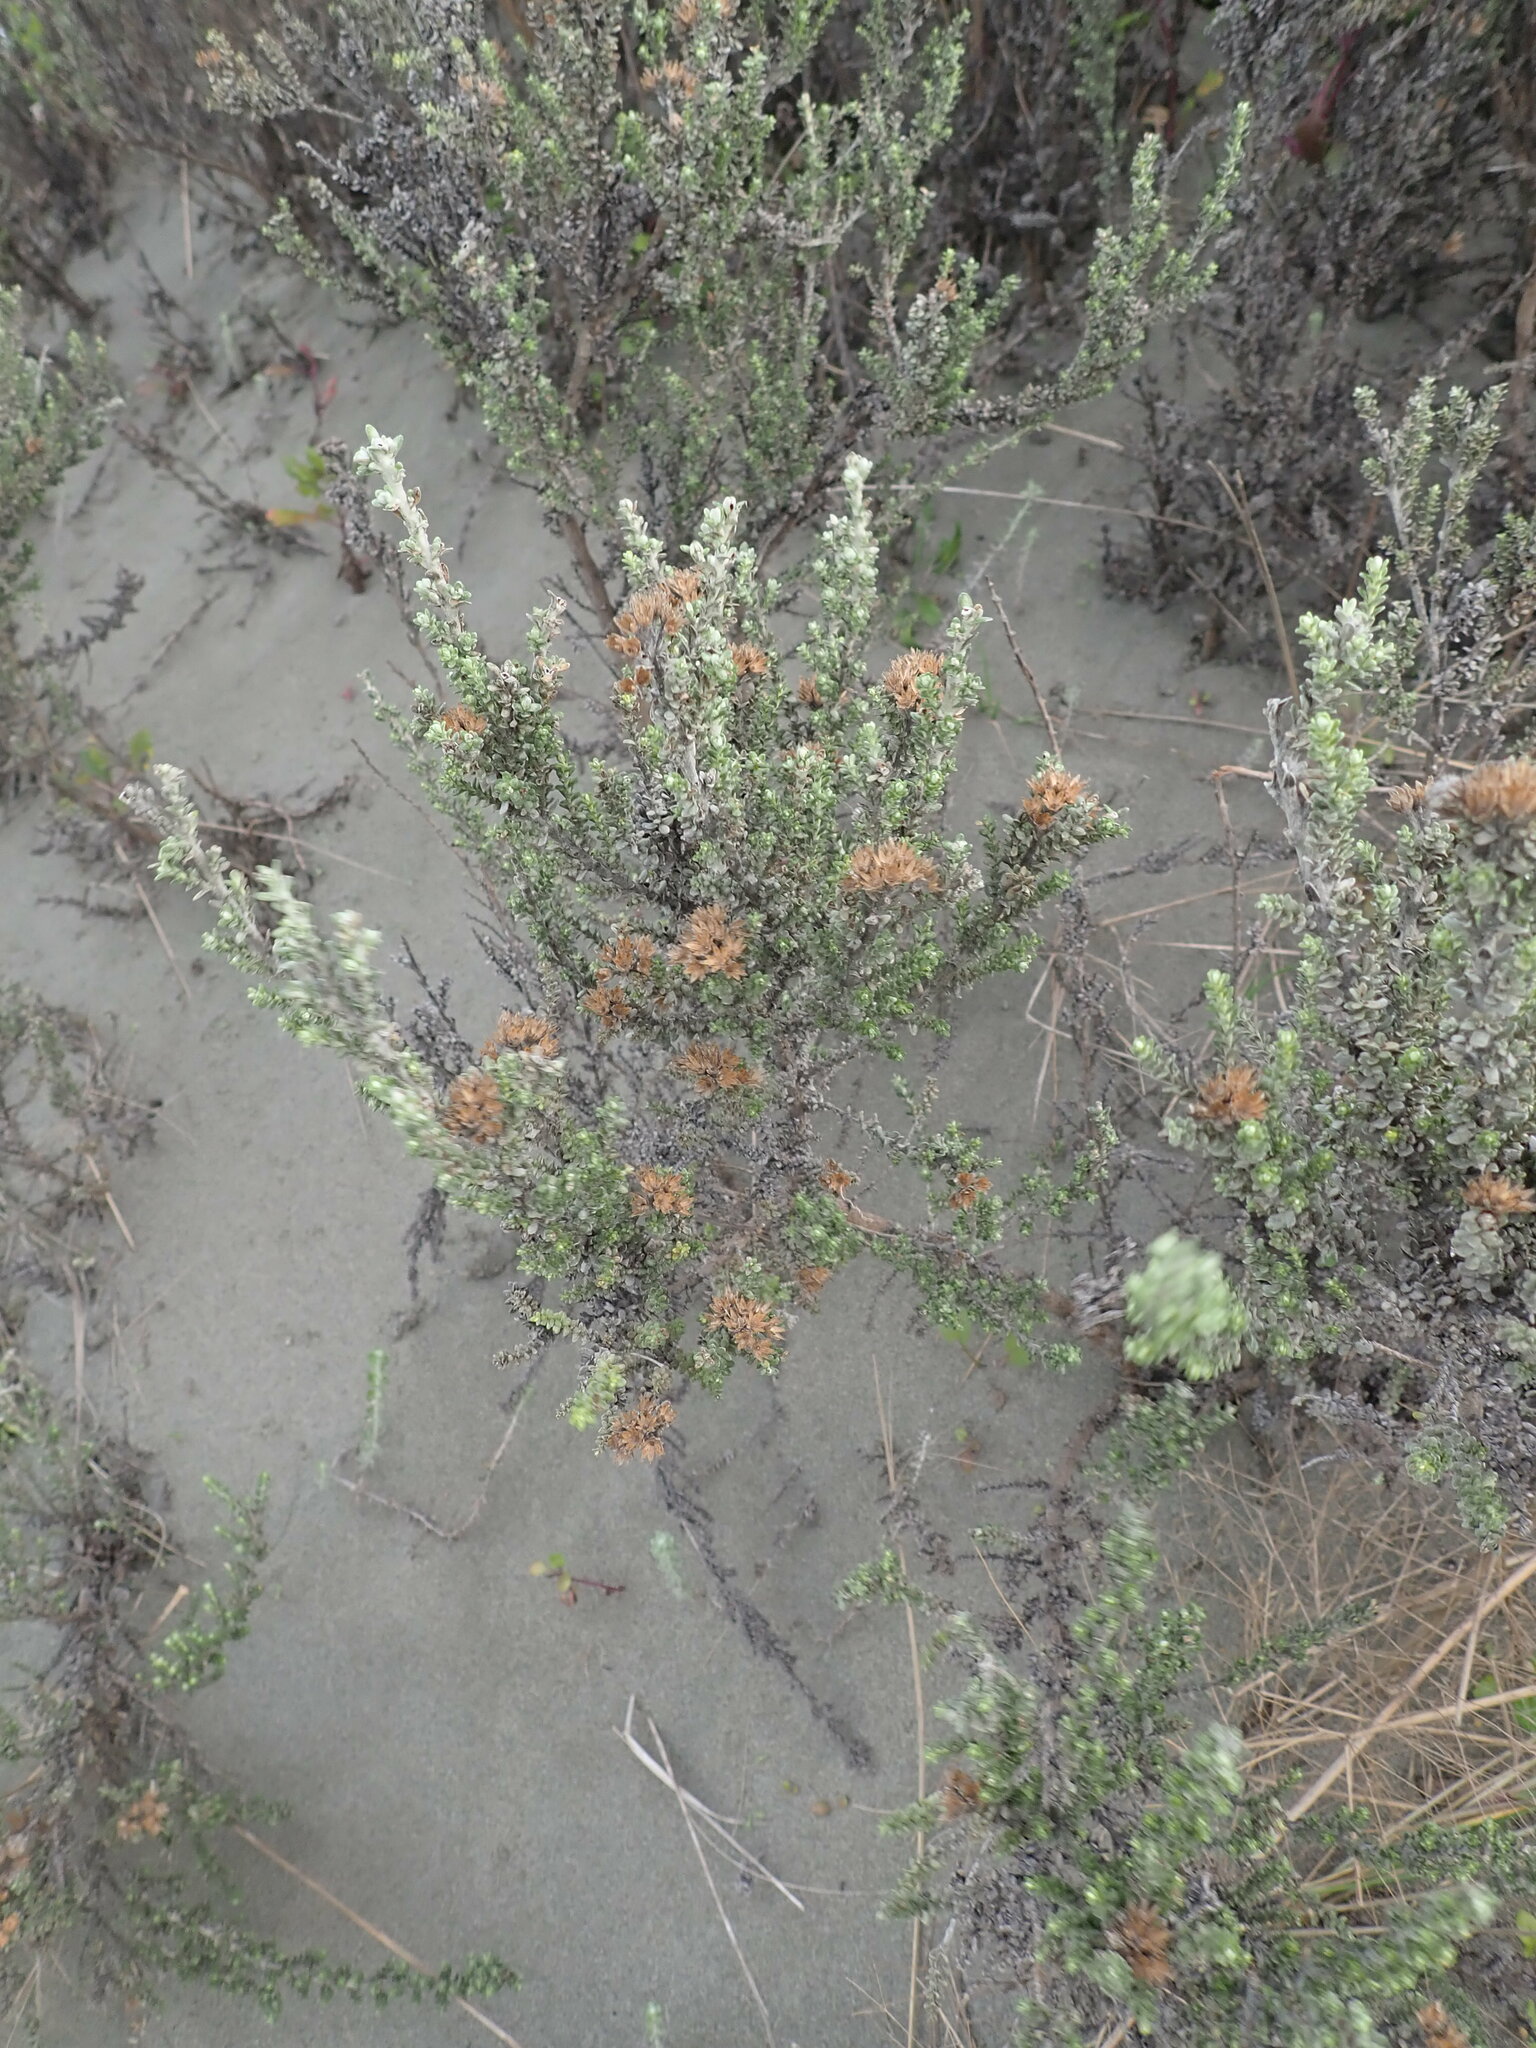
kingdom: Plantae
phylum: Tracheophyta
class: Magnoliopsida
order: Asterales
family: Asteraceae
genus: Ozothamnus
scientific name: Ozothamnus leptophyllus
